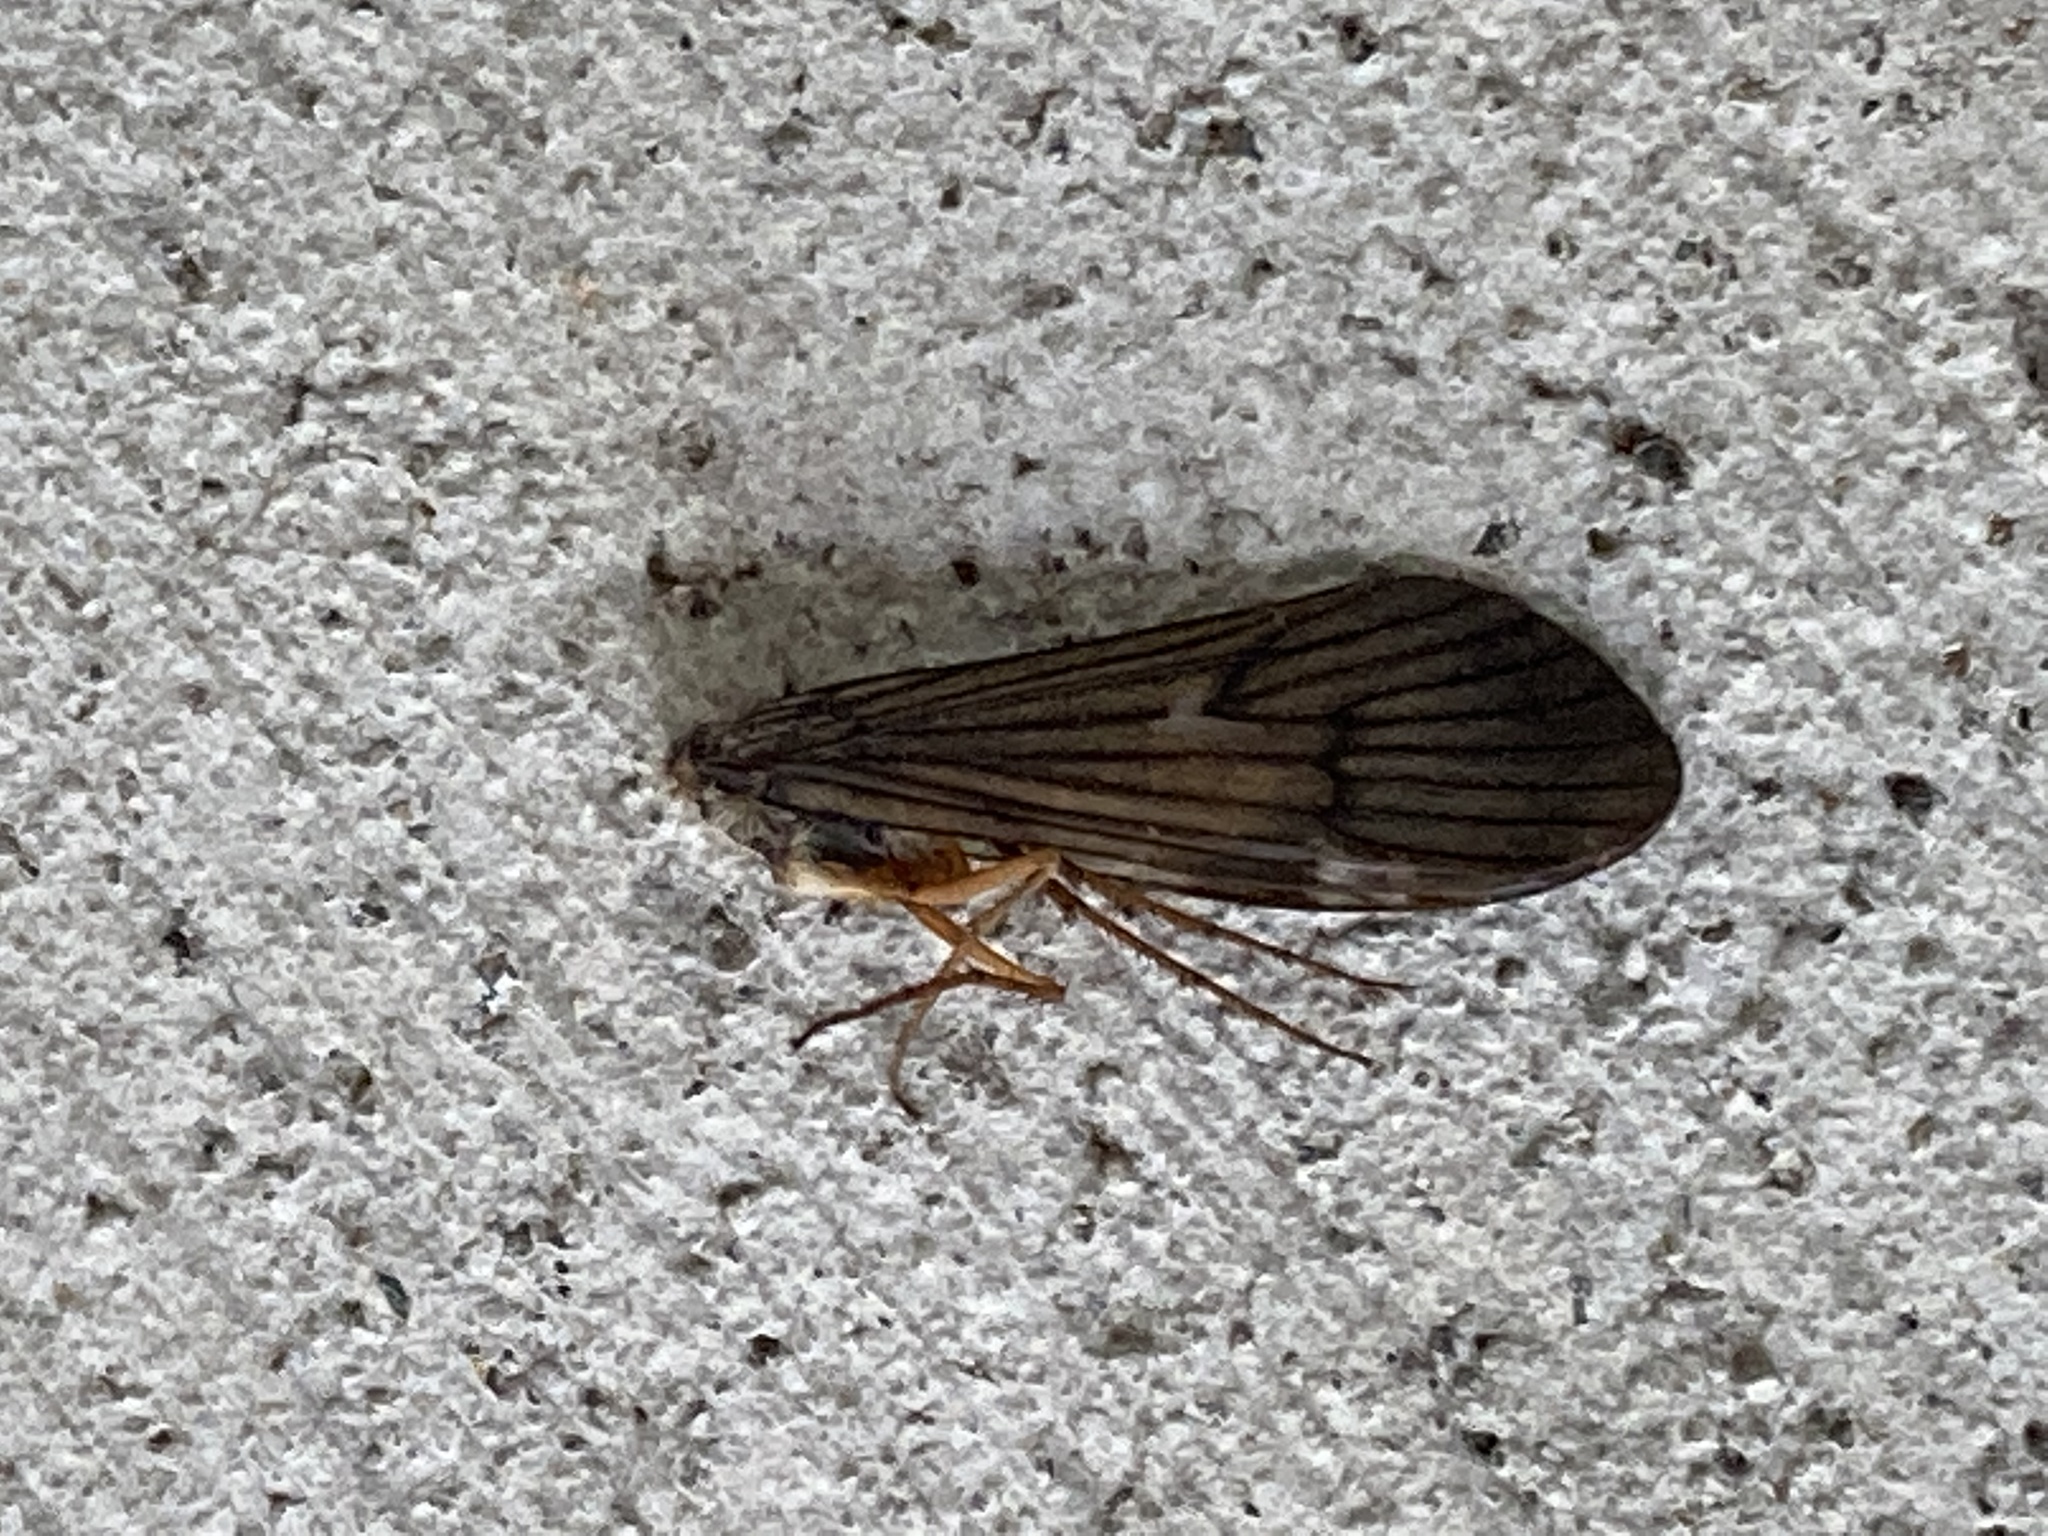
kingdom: Animalia
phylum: Arthropoda
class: Insecta
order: Trichoptera
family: Limnephilidae
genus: Dicosmoecus
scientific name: Dicosmoecus gilvipes
